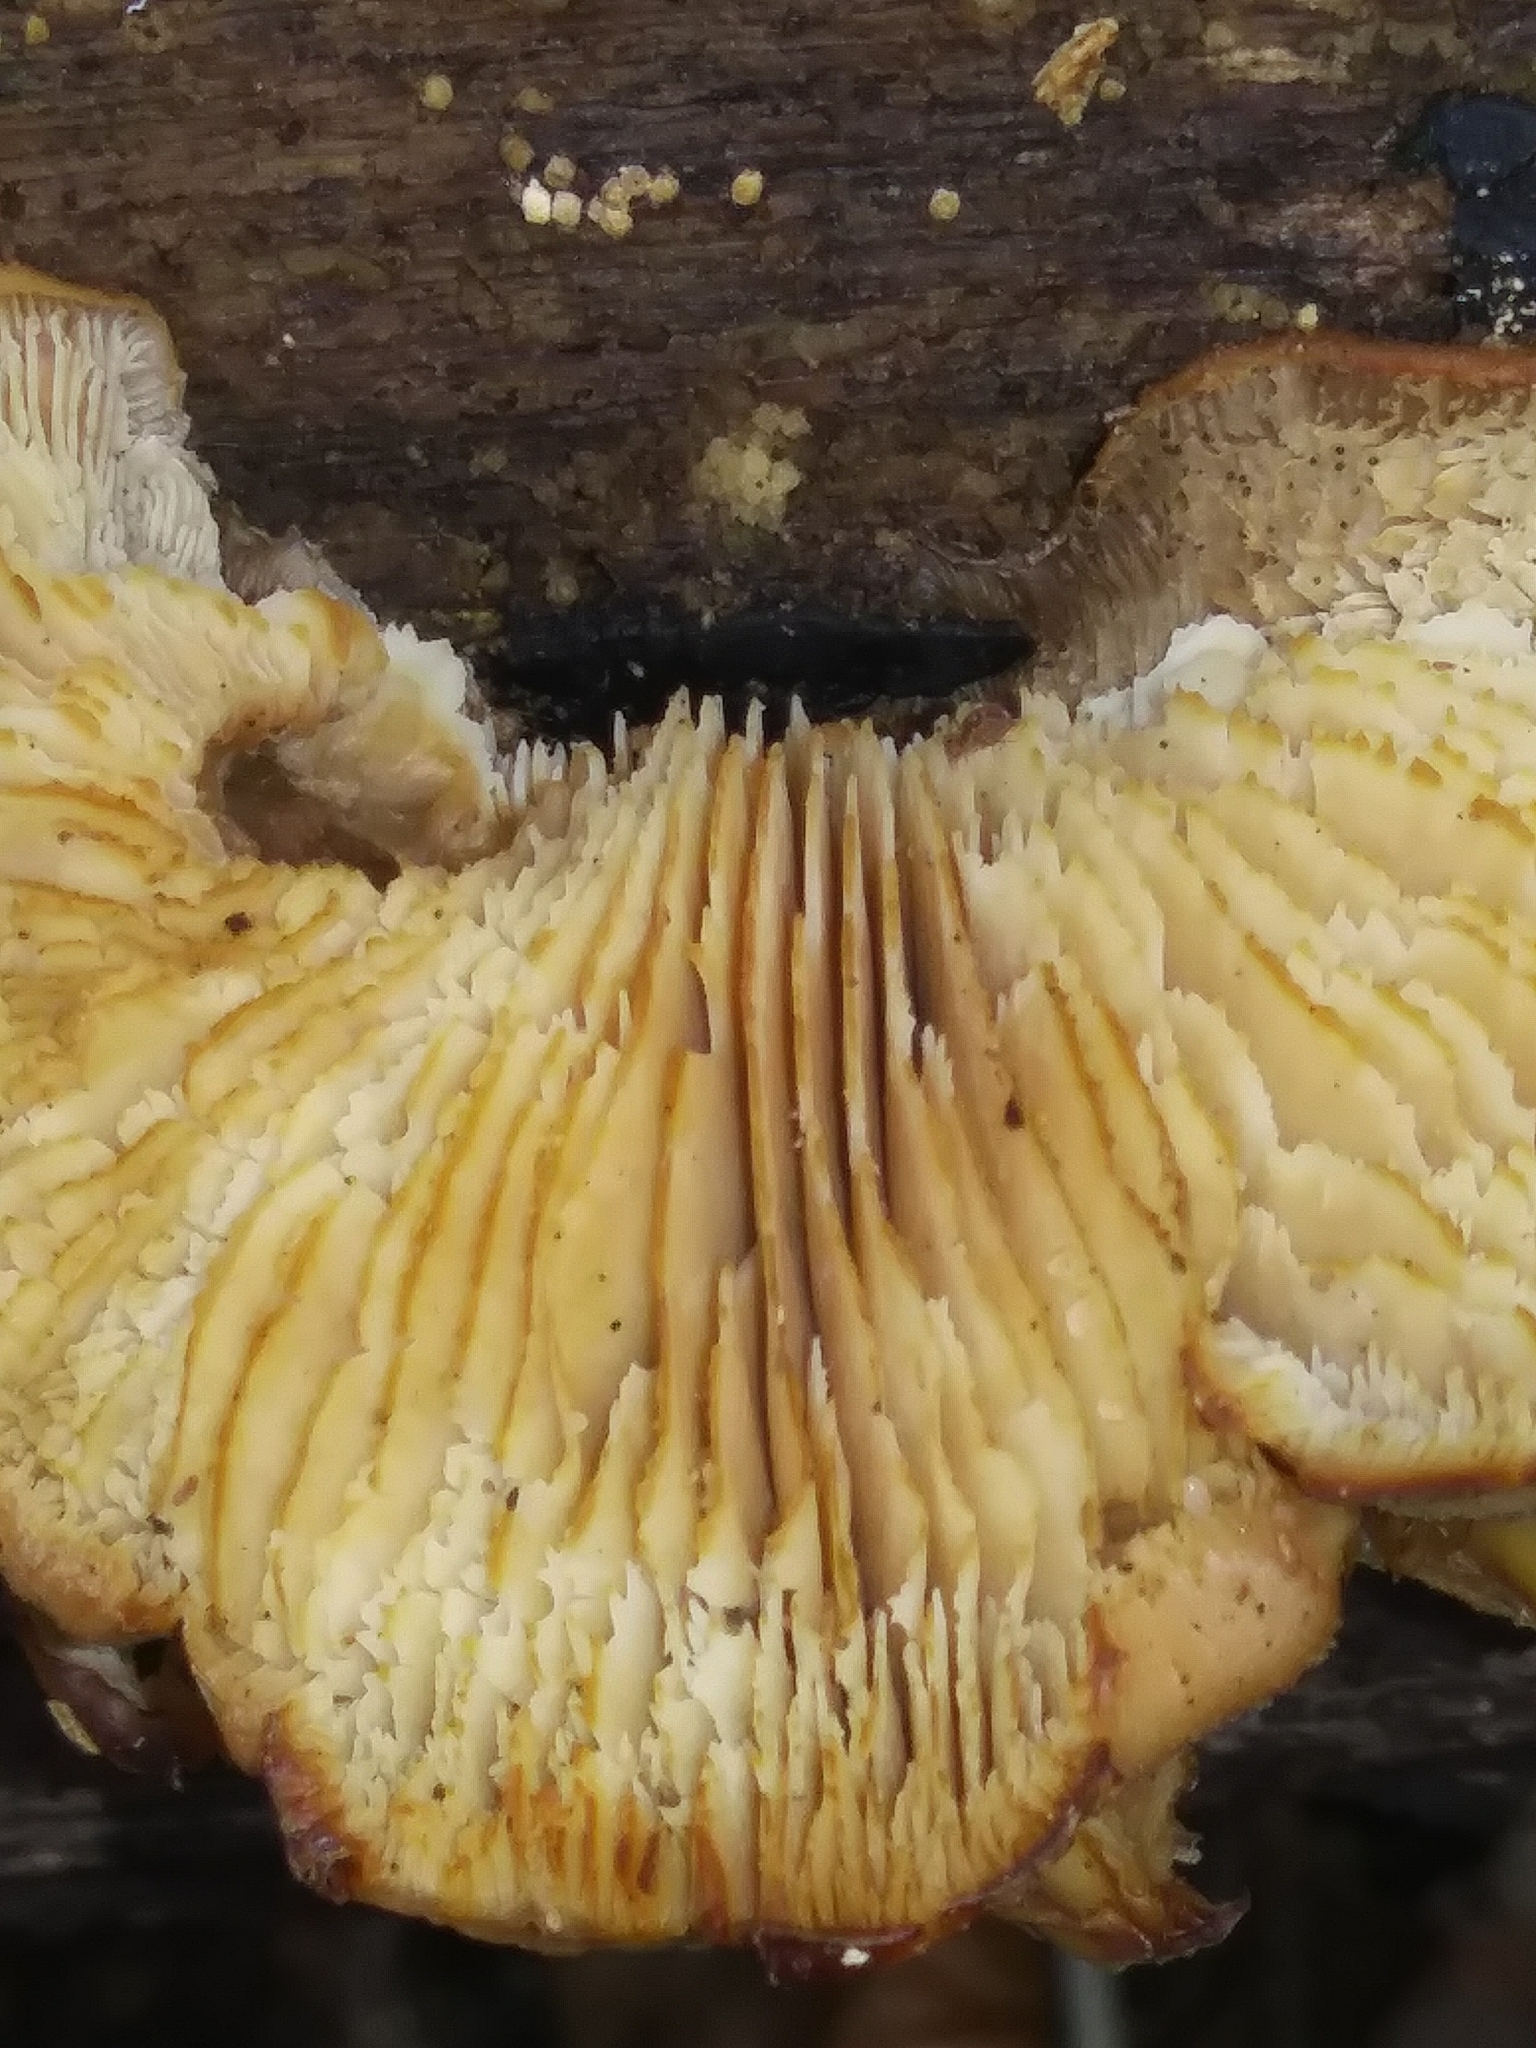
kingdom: Fungi
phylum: Basidiomycota
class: Agaricomycetes
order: Russulales
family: Auriscalpiaceae
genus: Lentinellus
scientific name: Lentinellus ursinus
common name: Bear lentinus
